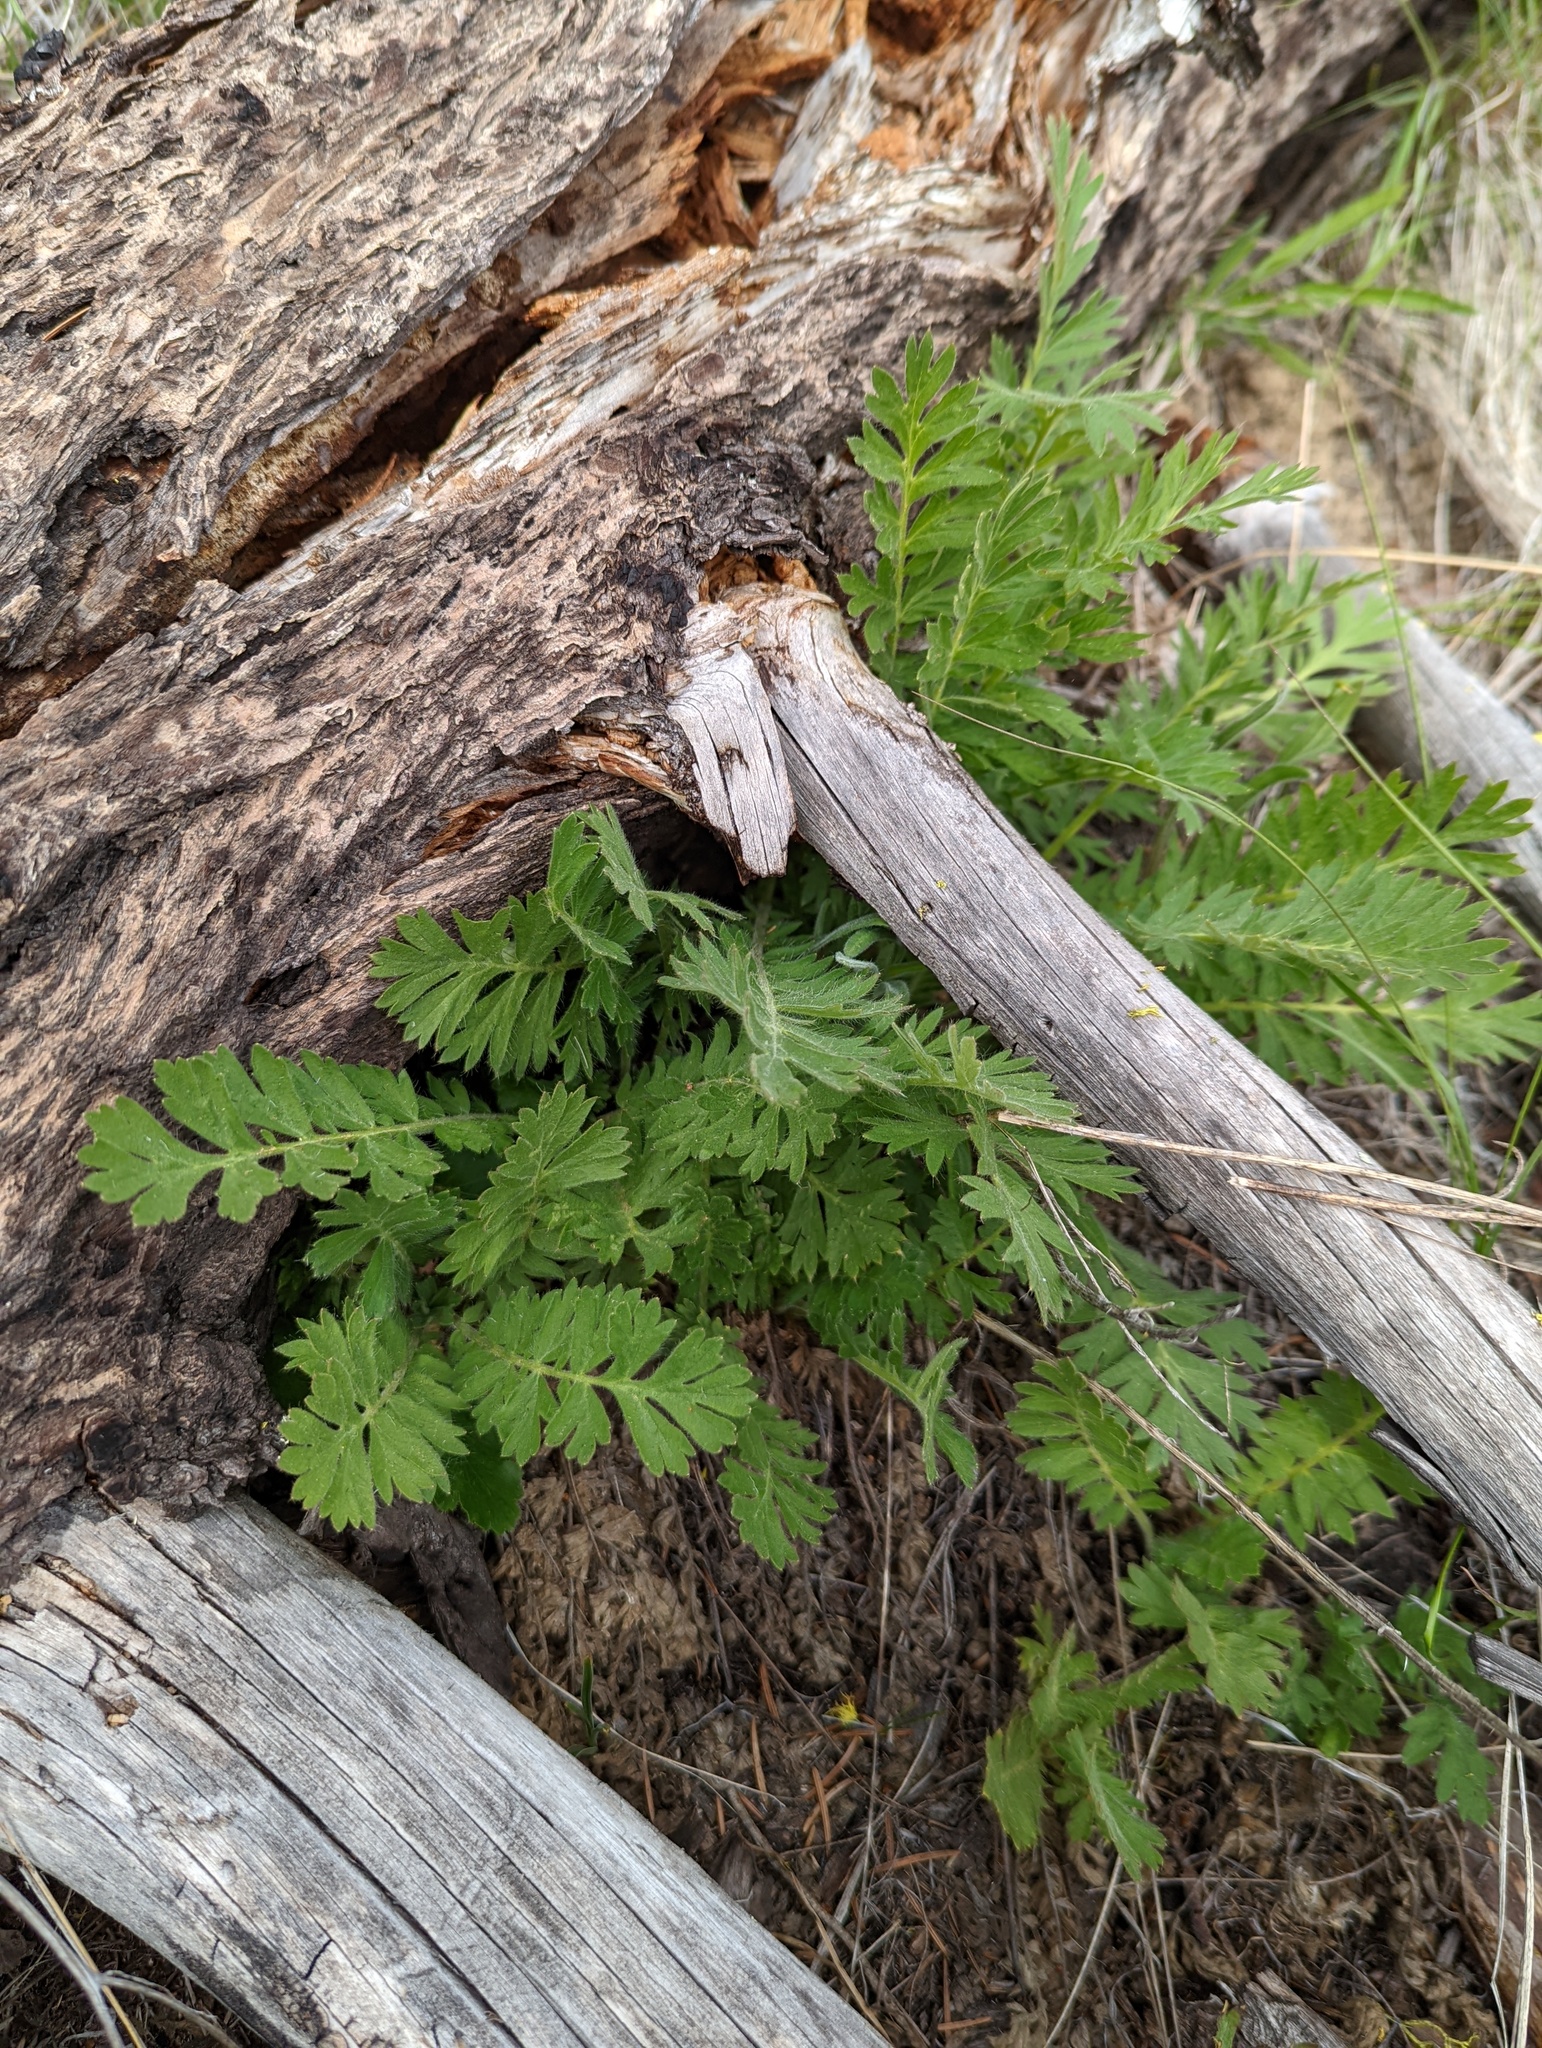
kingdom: Plantae
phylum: Tracheophyta
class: Magnoliopsida
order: Rosales
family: Rosaceae
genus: Geum
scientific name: Geum triflorum
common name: Old man's whiskers
